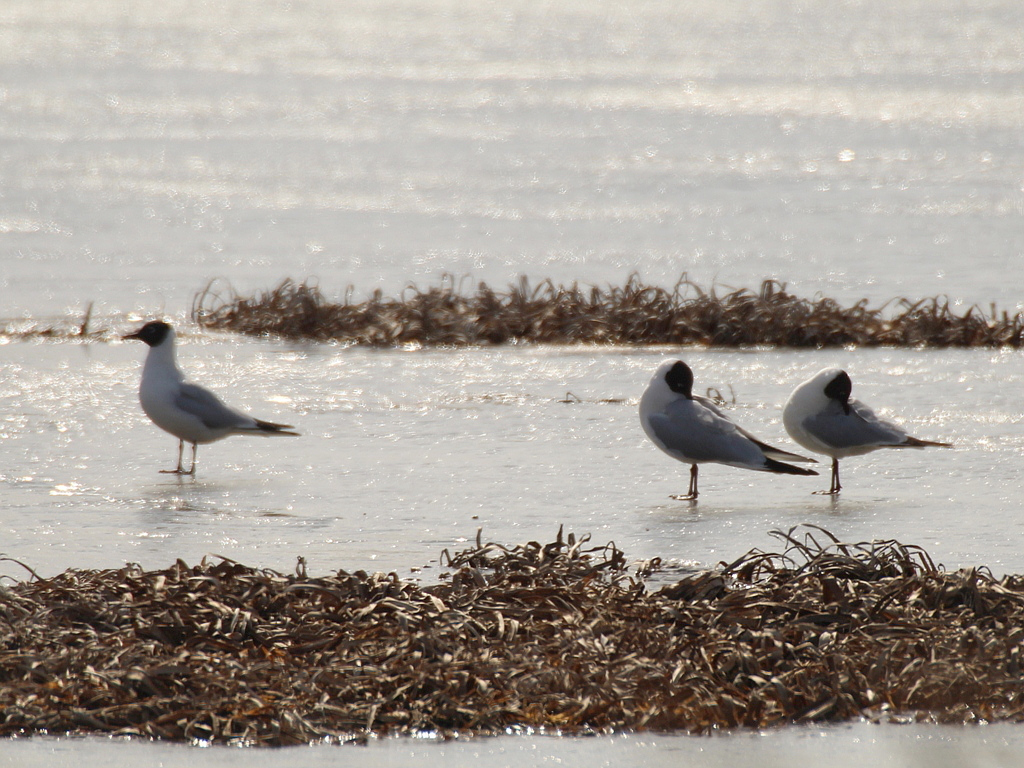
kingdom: Animalia
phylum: Chordata
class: Aves
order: Charadriiformes
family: Laridae
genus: Chroicocephalus
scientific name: Chroicocephalus ridibundus
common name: Black-headed gull
